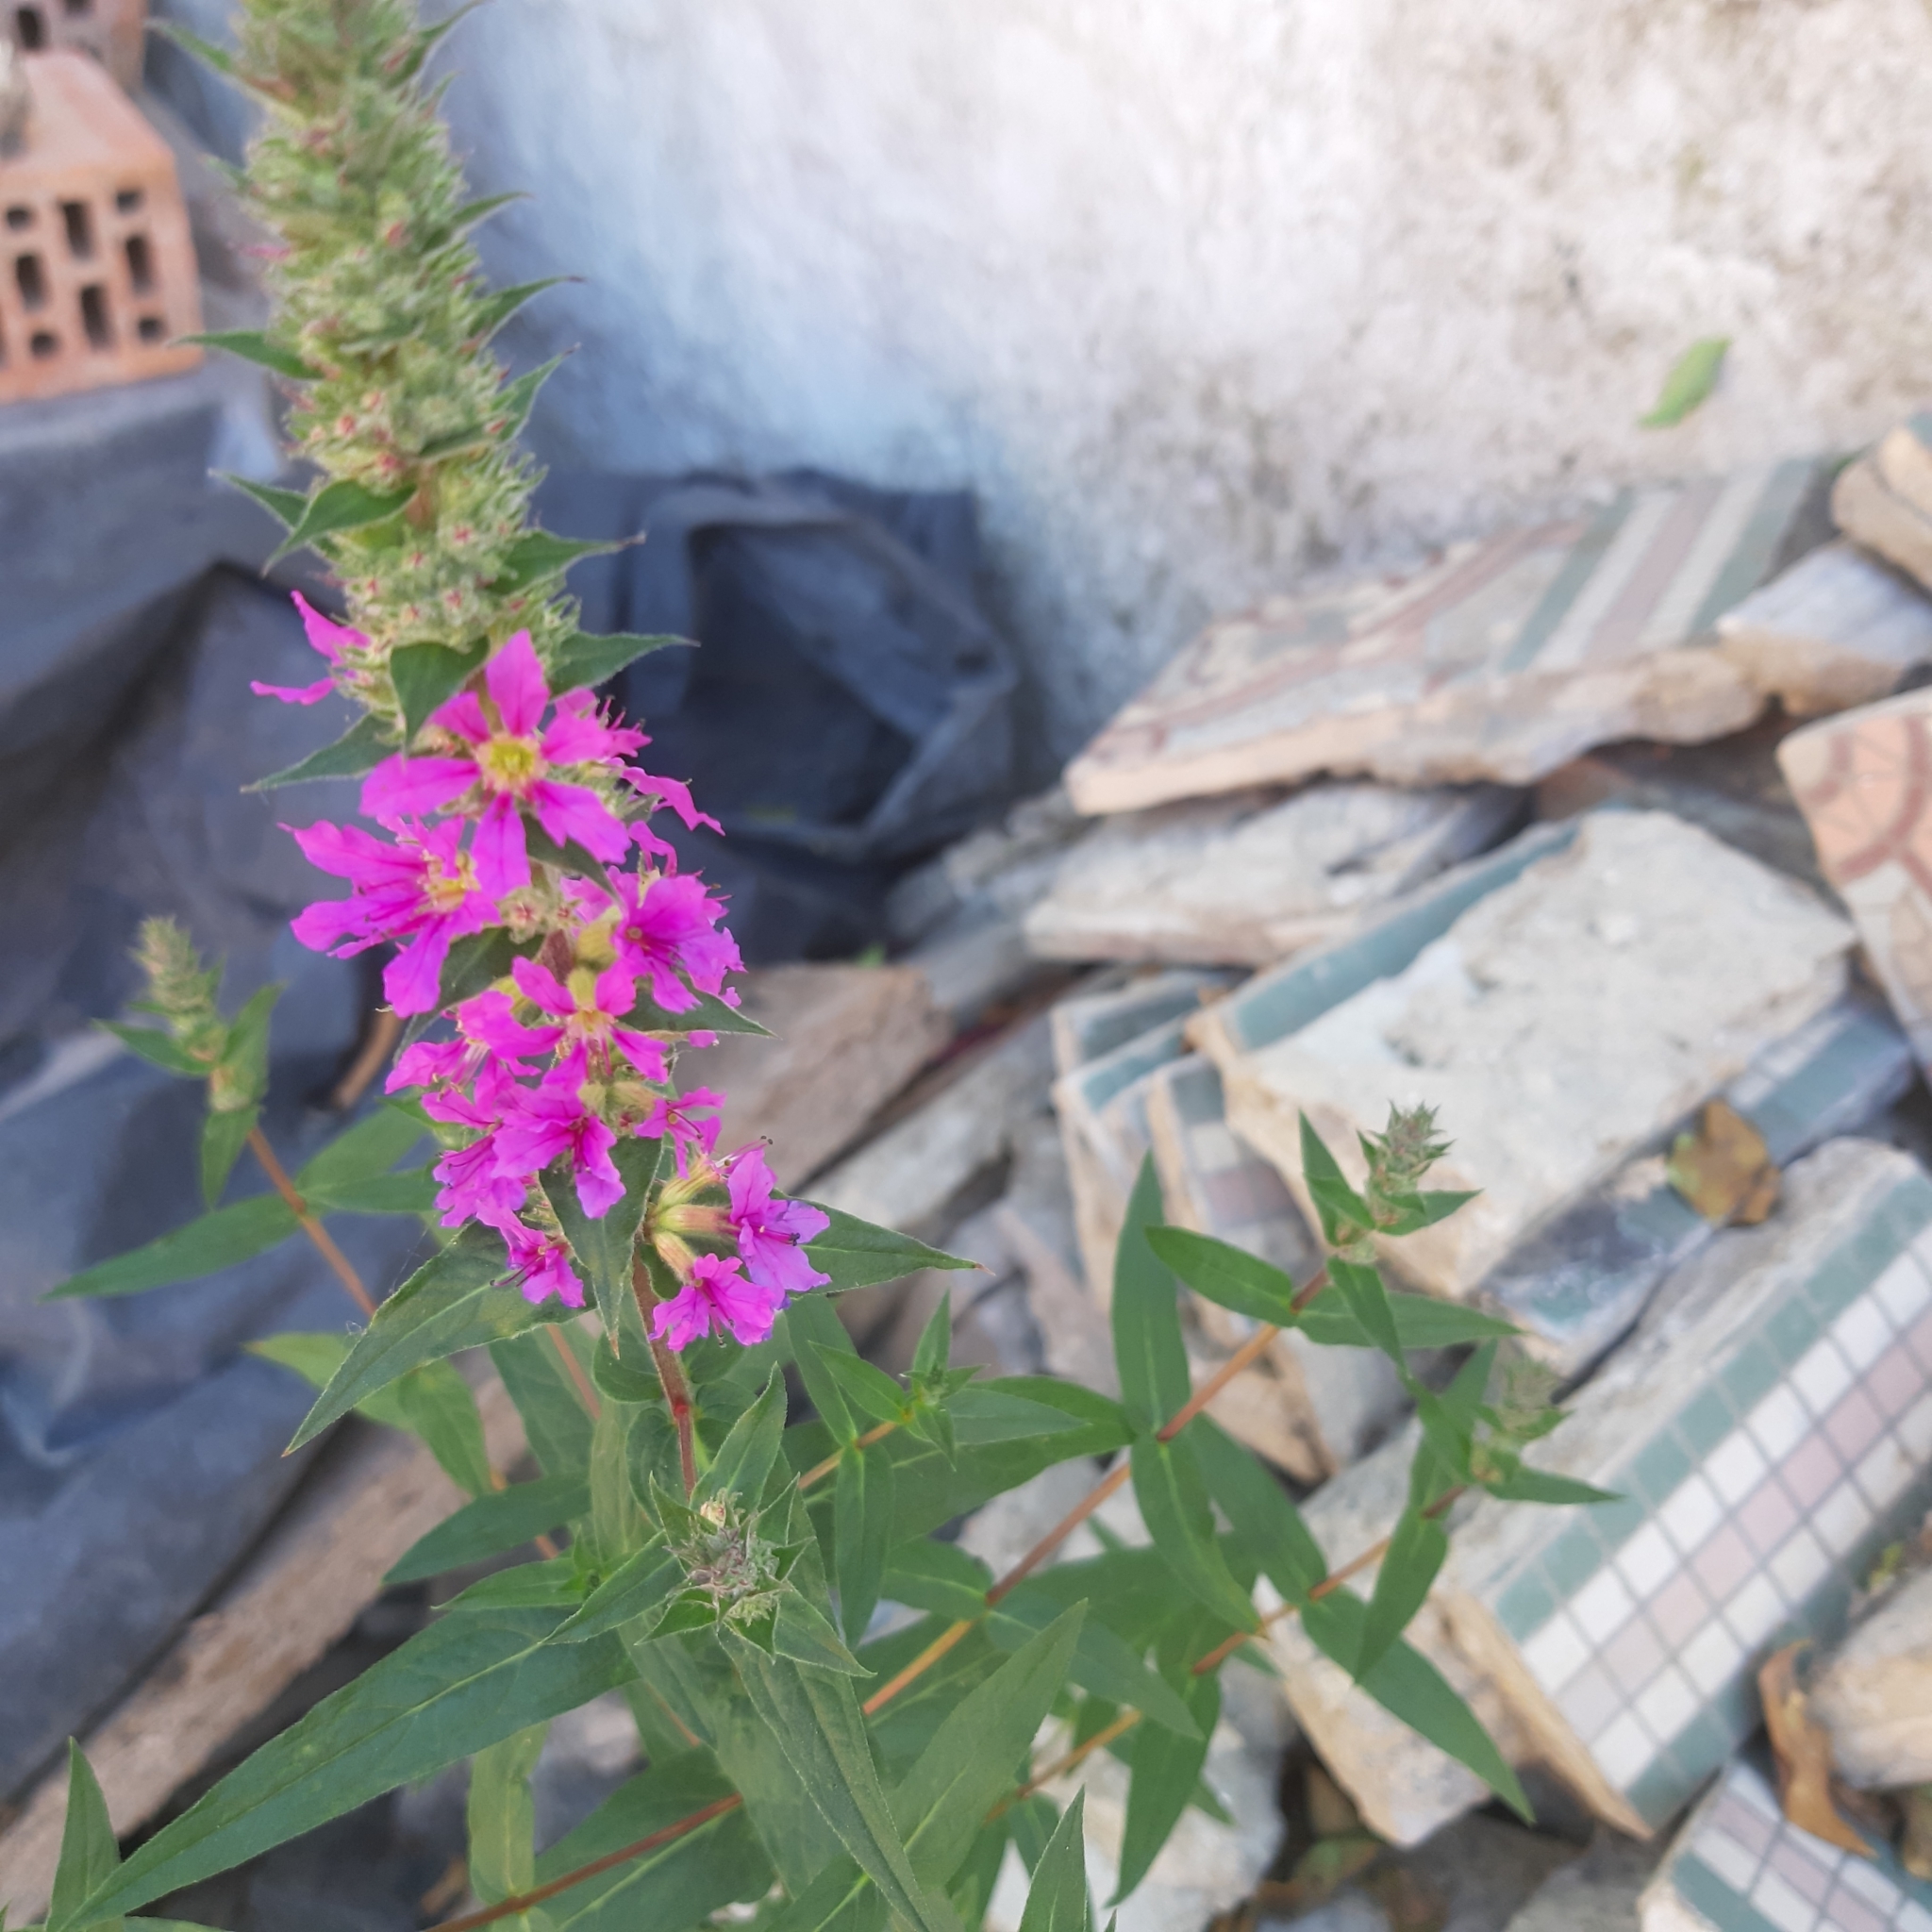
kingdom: Plantae
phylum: Tracheophyta
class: Magnoliopsida
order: Myrtales
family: Lythraceae
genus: Lythrum
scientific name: Lythrum salicaria
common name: Purple loosestrife
